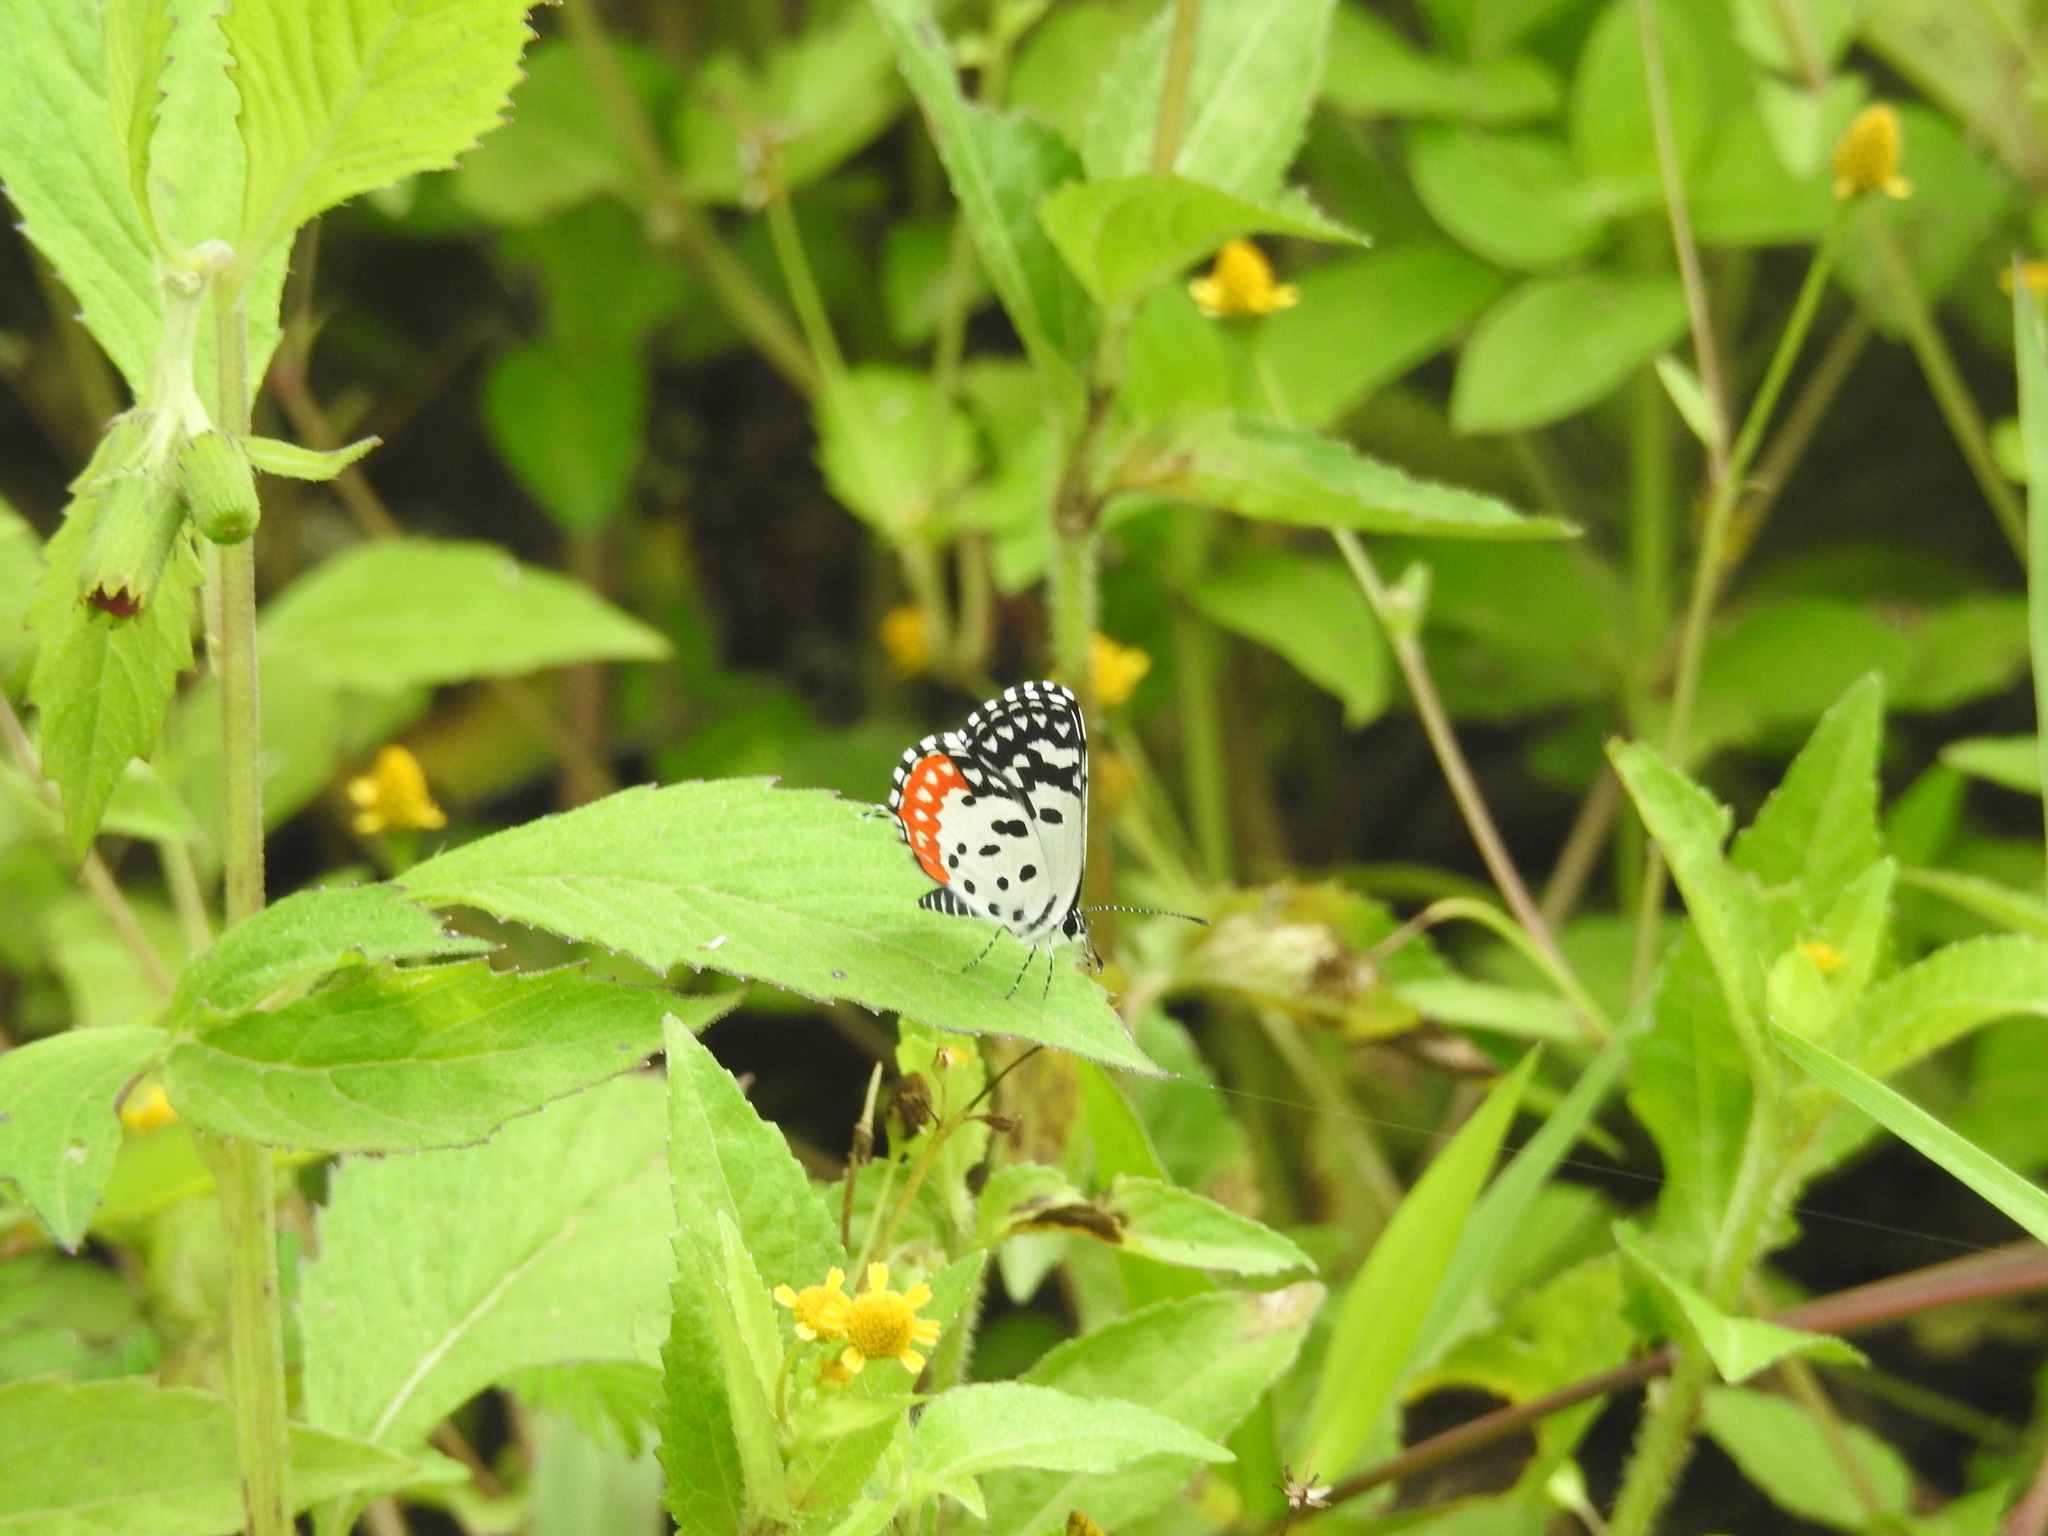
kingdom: Animalia
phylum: Arthropoda
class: Insecta
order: Lepidoptera
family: Lycaenidae
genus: Talicada
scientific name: Talicada nyseus
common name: Red pierrot
